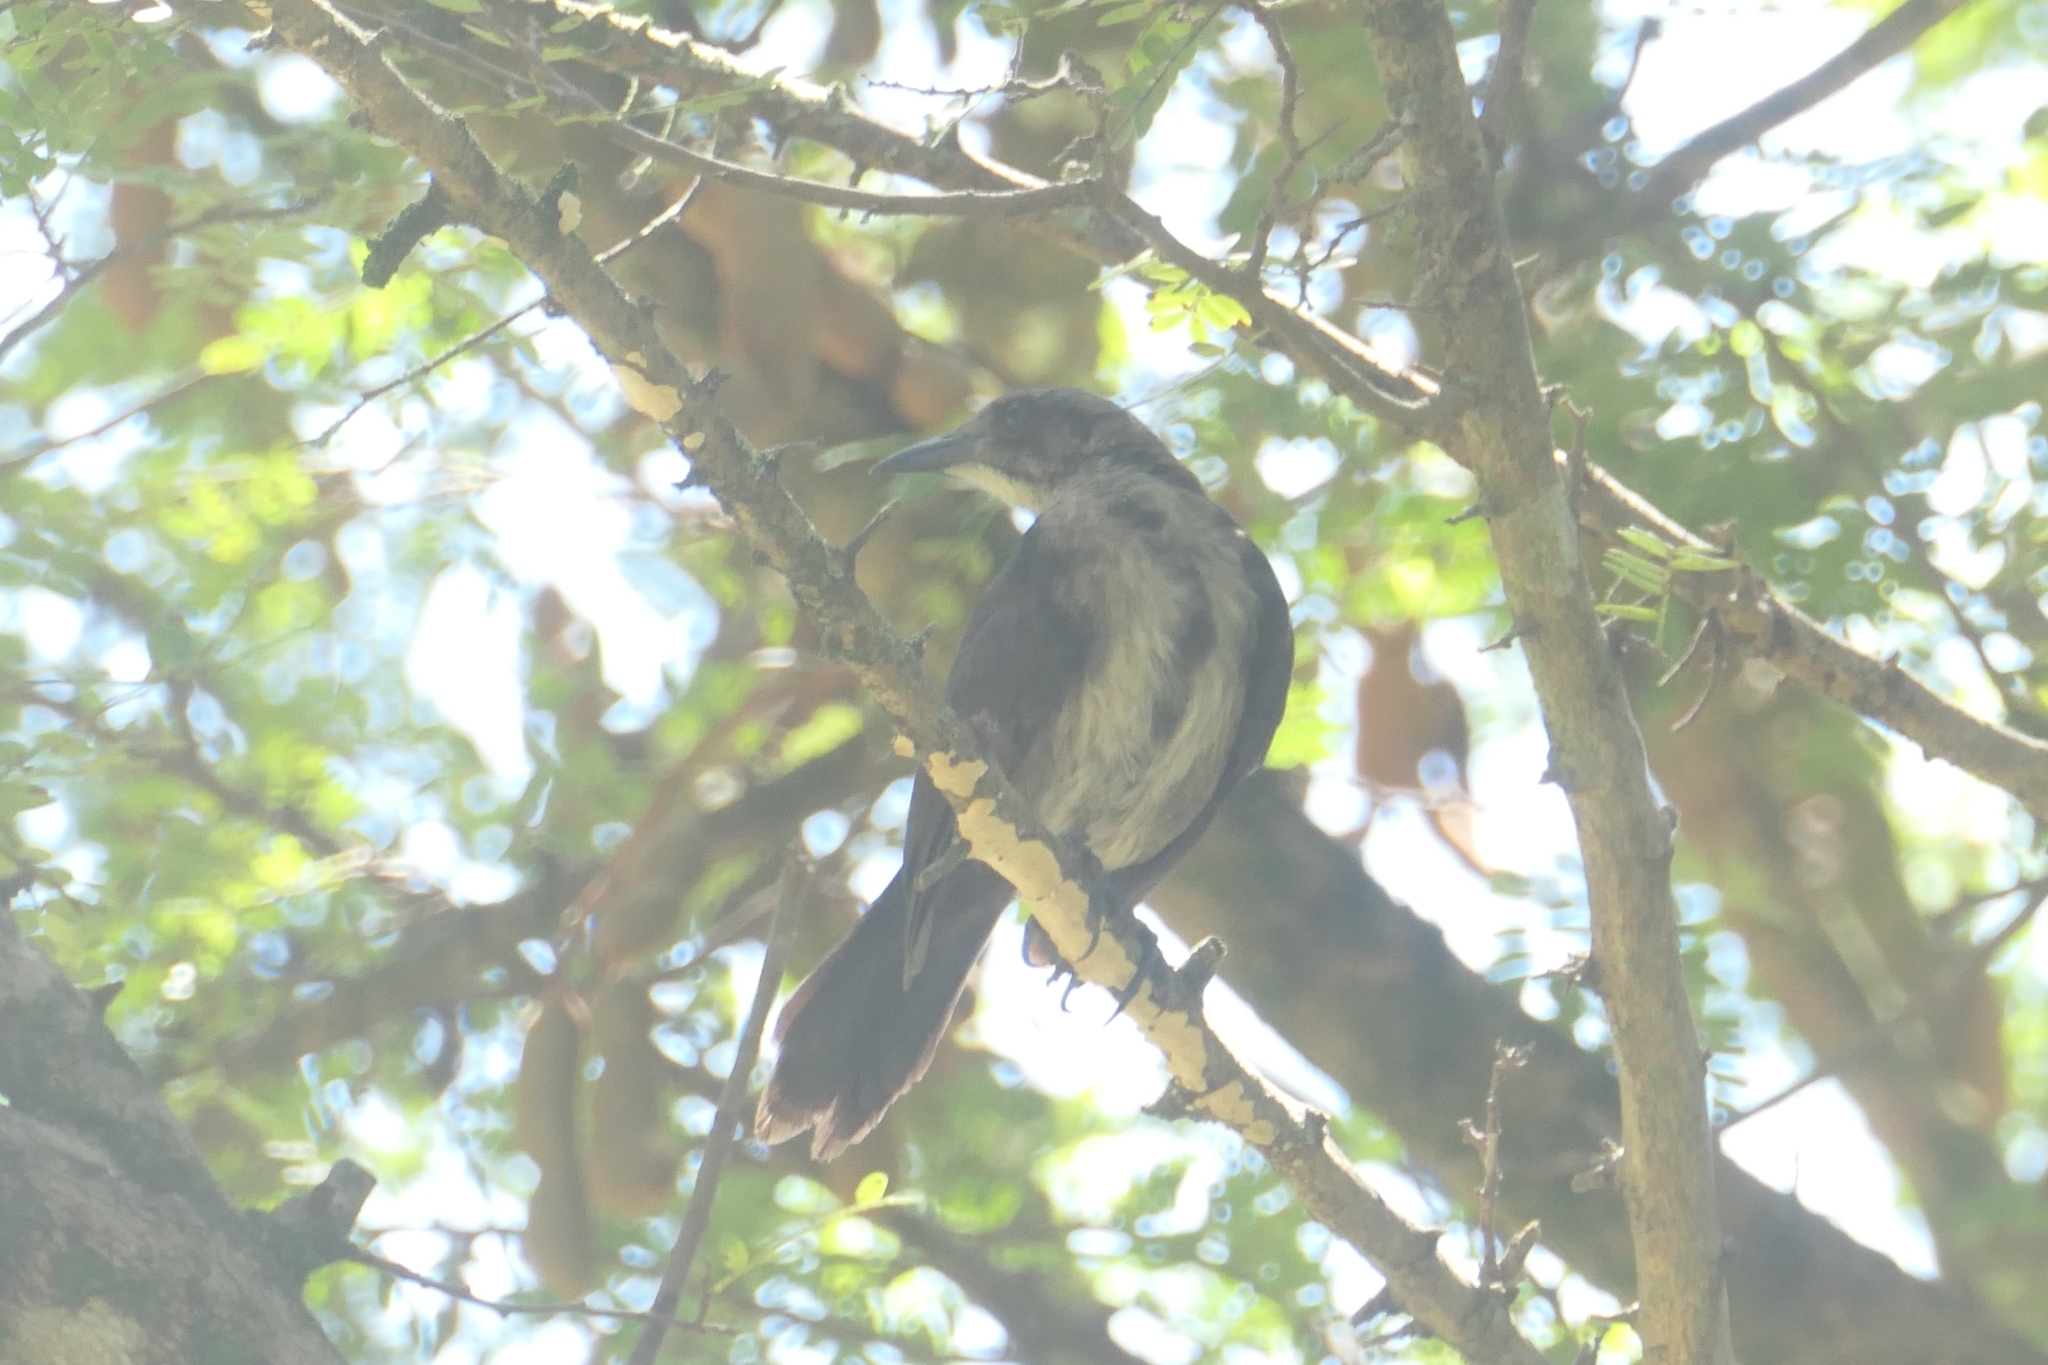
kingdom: Animalia
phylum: Chordata
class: Aves
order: Passeriformes
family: Icteridae
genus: Quiscalus
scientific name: Quiscalus lugubris
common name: Carib grackle
